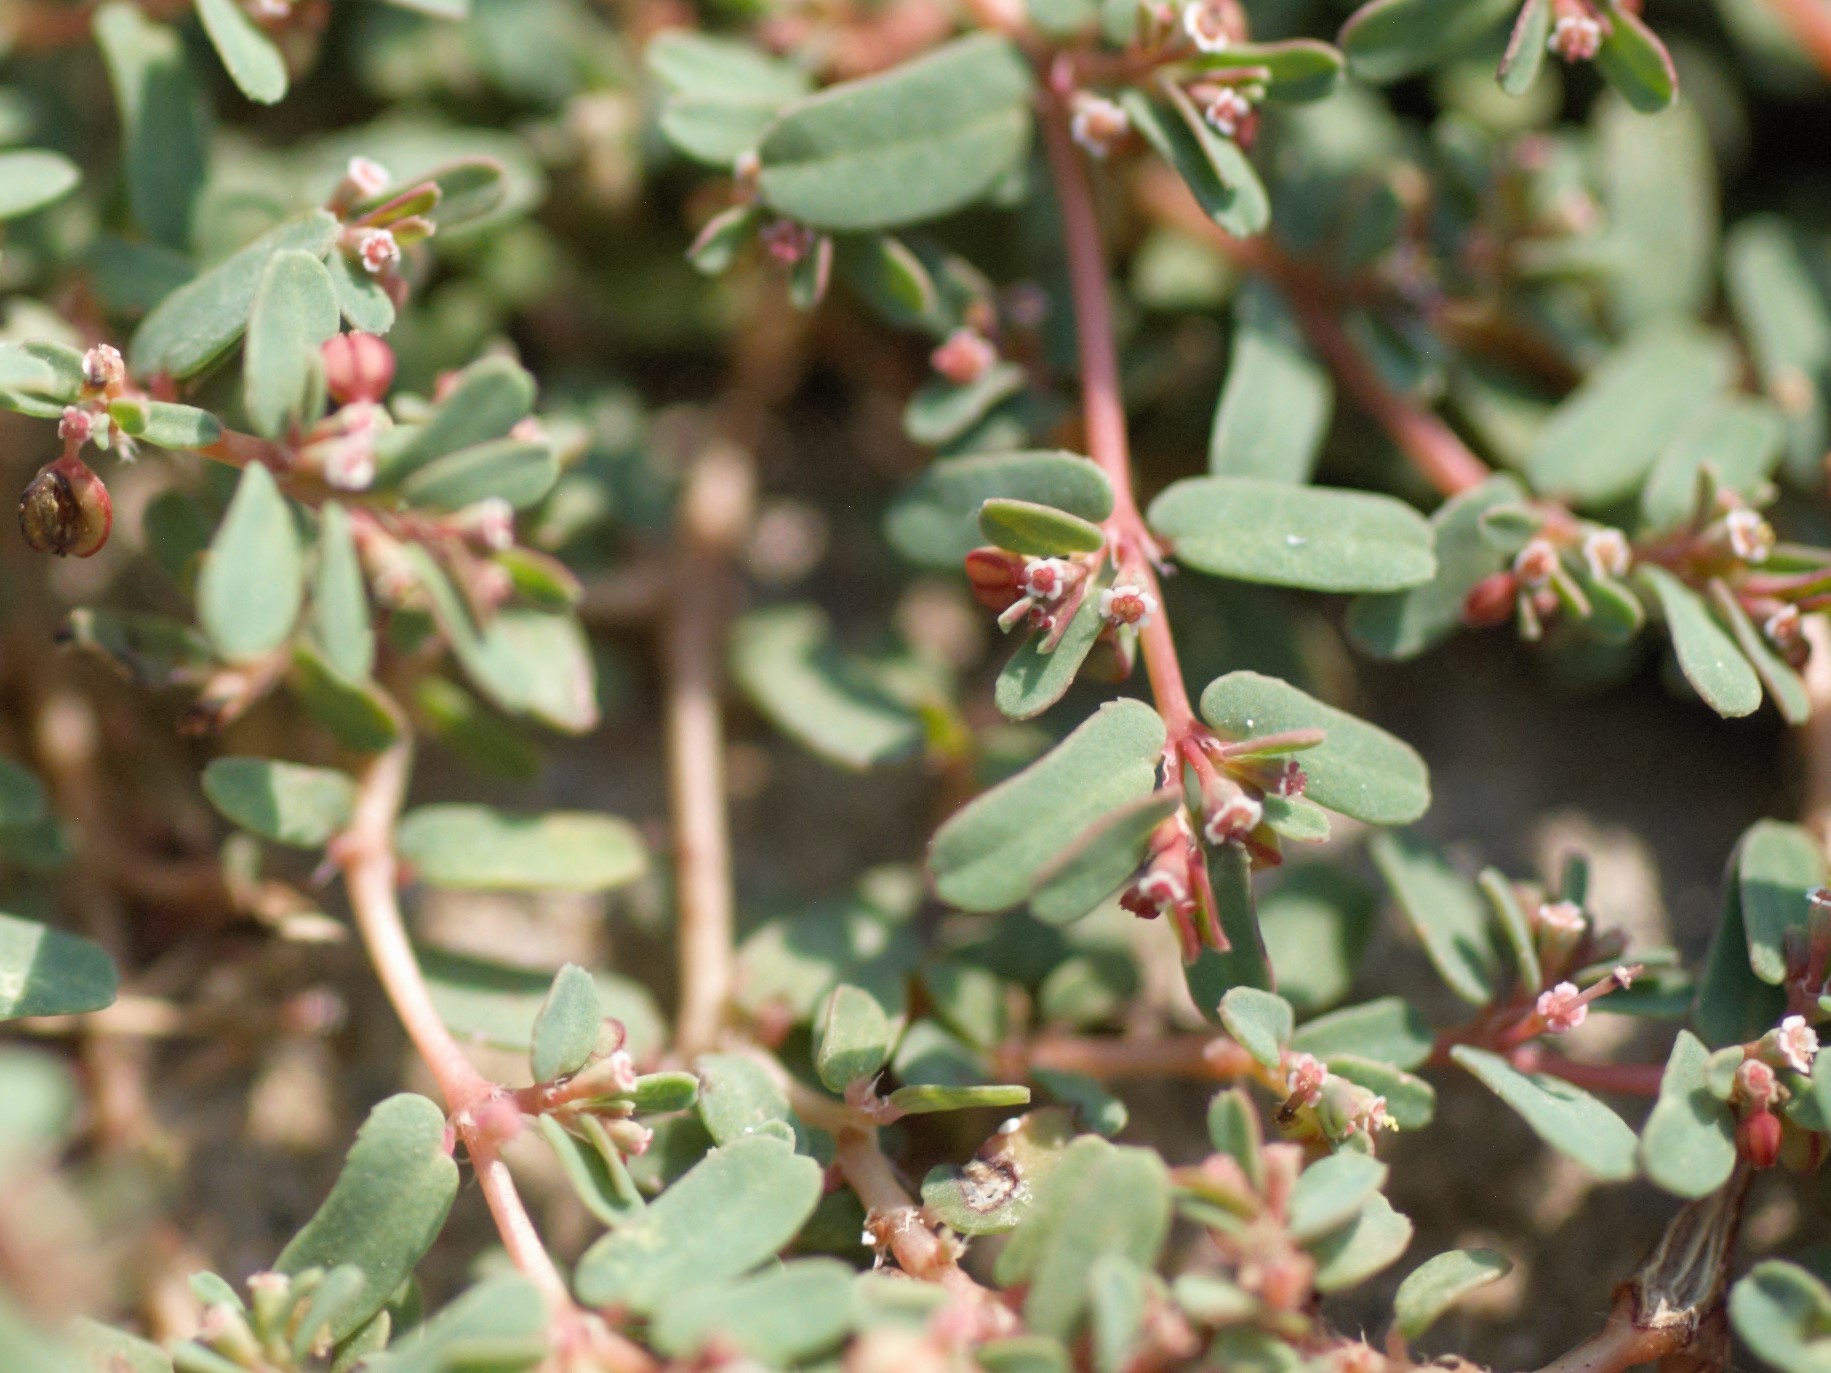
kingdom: Plantae
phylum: Tracheophyta
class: Magnoliopsida
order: Malpighiales
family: Euphorbiaceae
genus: Euphorbia
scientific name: Euphorbia glyptosperma
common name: Corrugate-seeded spurge
